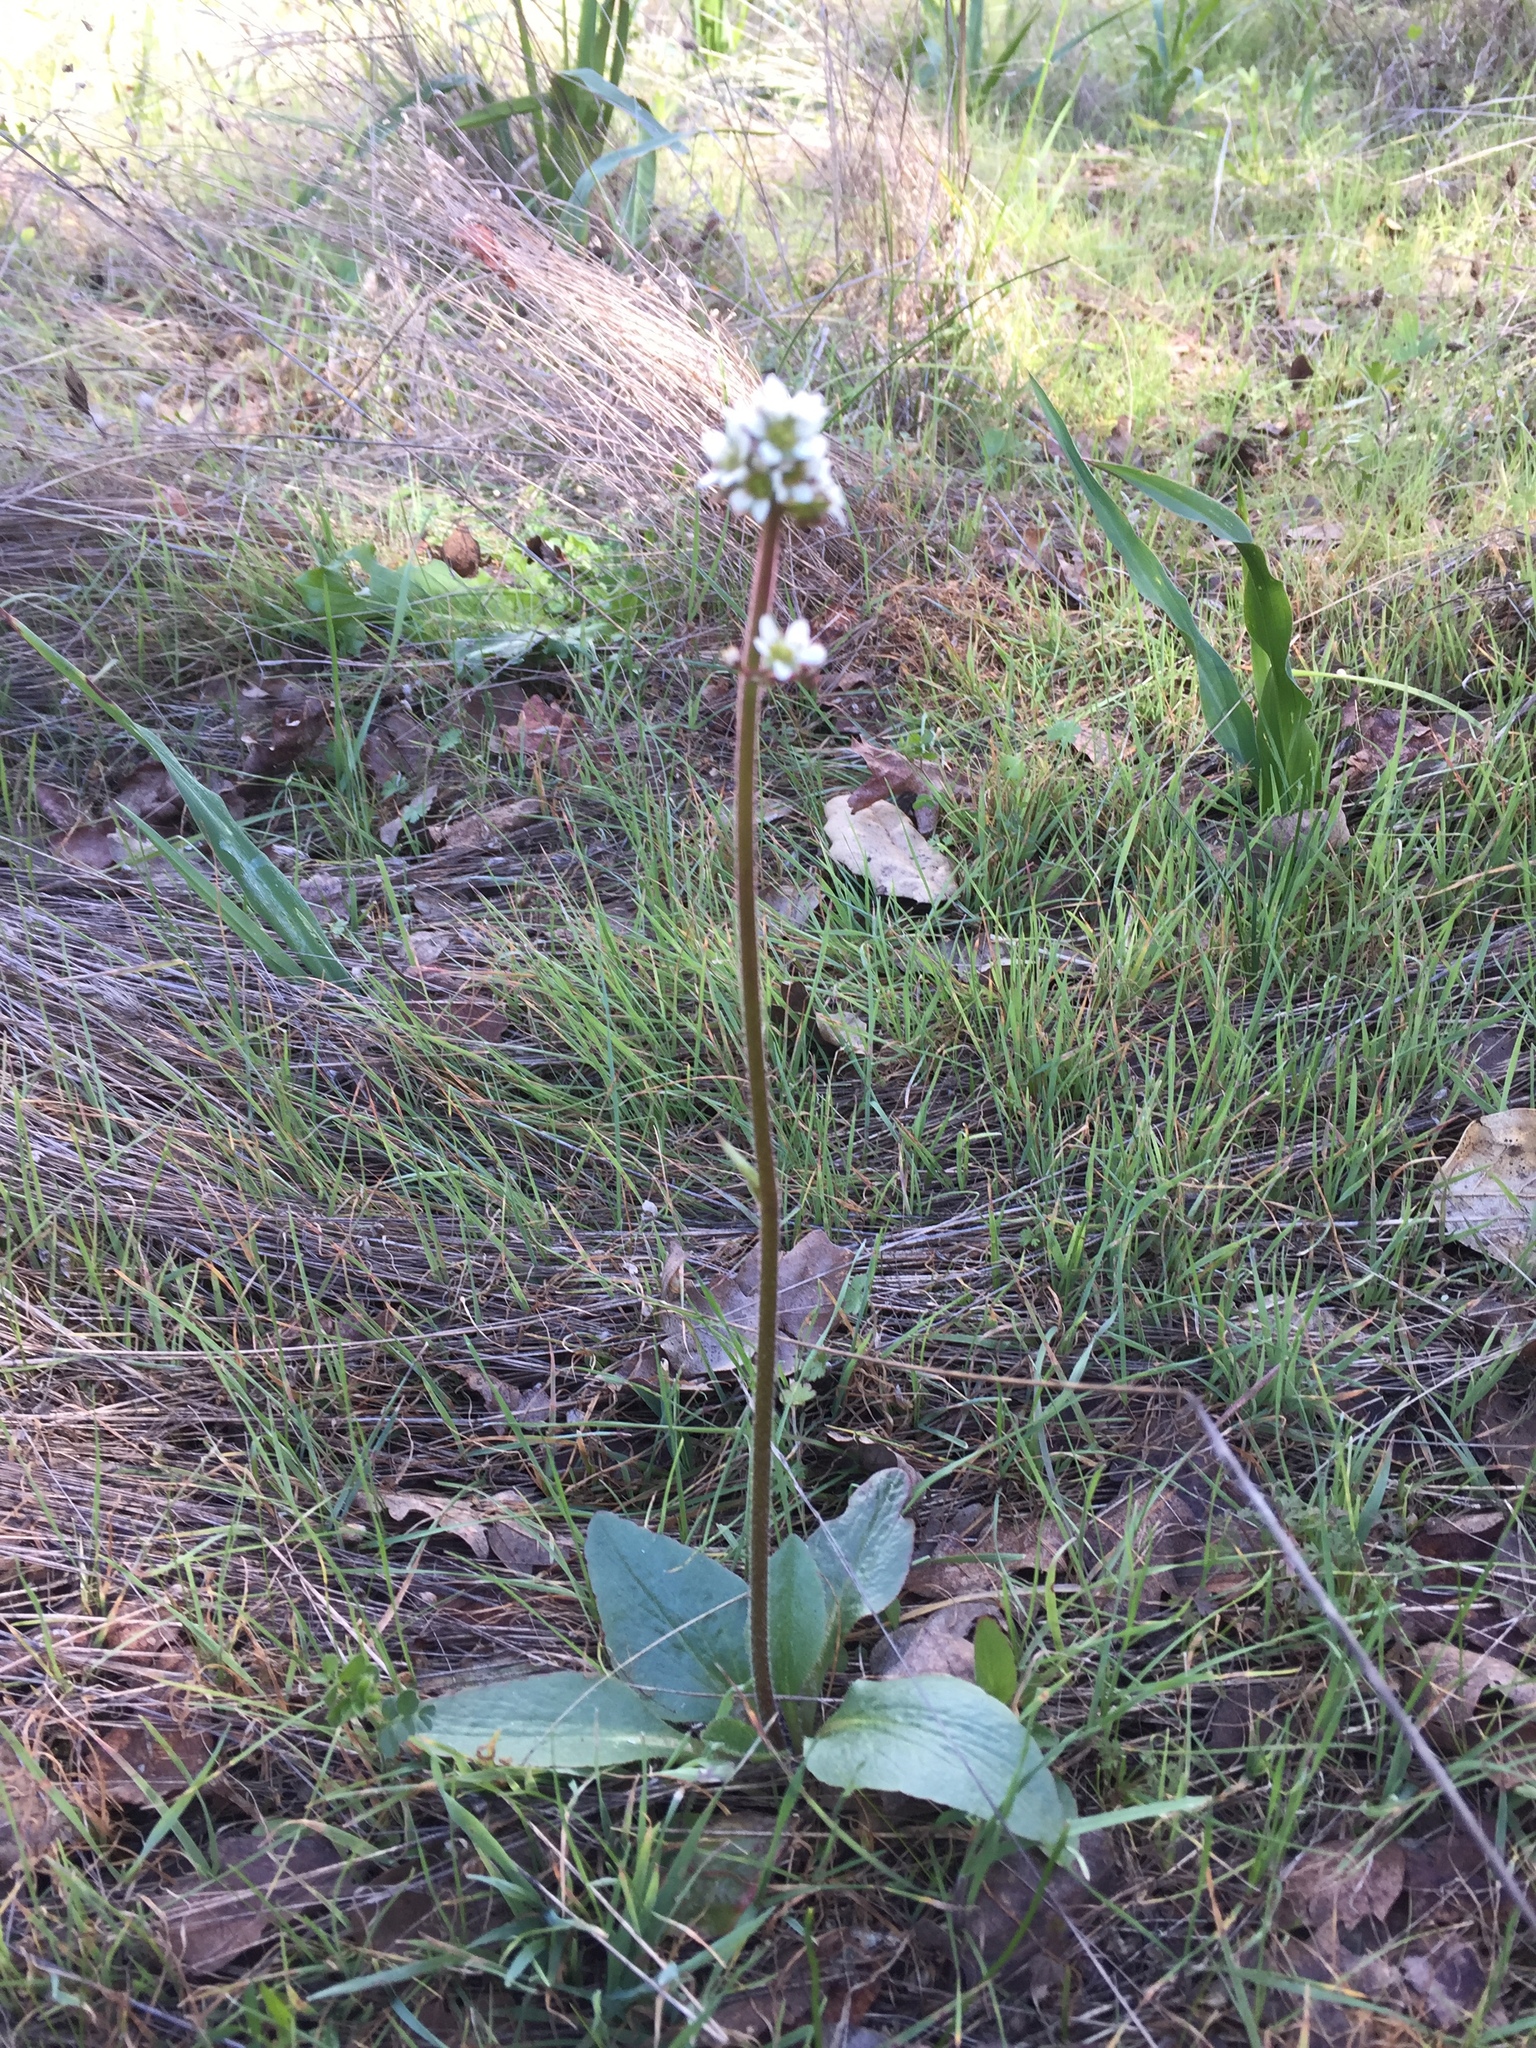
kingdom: Plantae
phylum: Tracheophyta
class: Magnoliopsida
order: Saxifragales
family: Saxifragaceae
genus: Micranthes
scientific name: Micranthes integrifolia
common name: Wholeleaf saxifrage
